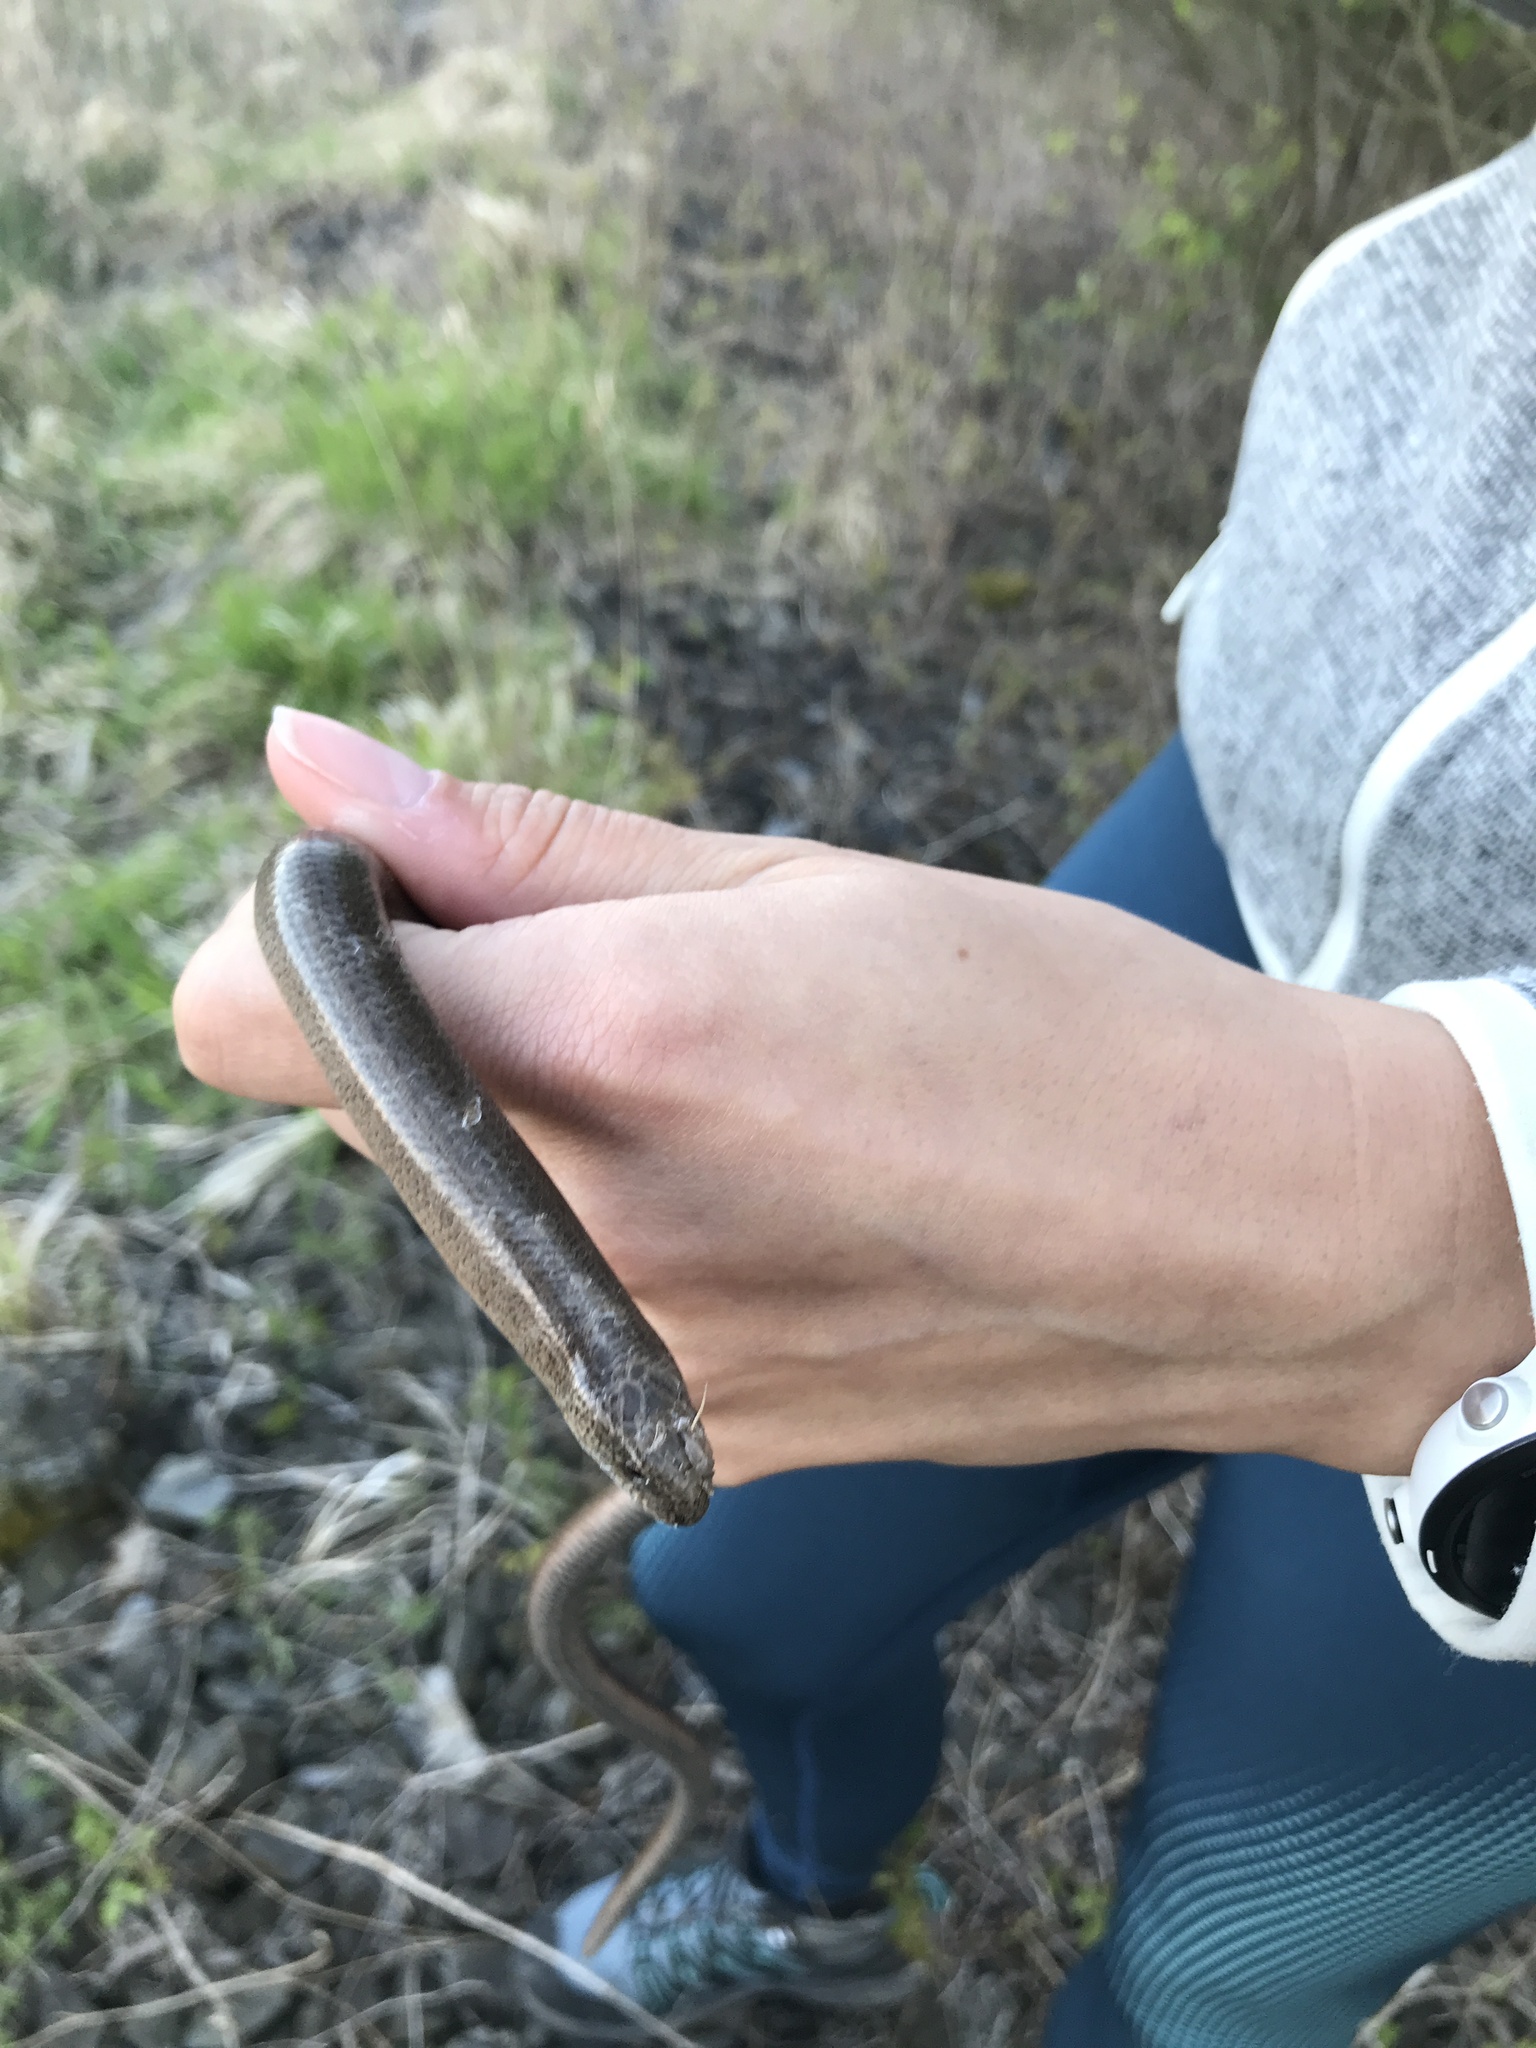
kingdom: Animalia
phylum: Chordata
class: Squamata
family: Anguidae
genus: Anguis
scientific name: Anguis fragilis
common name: Slow worm
